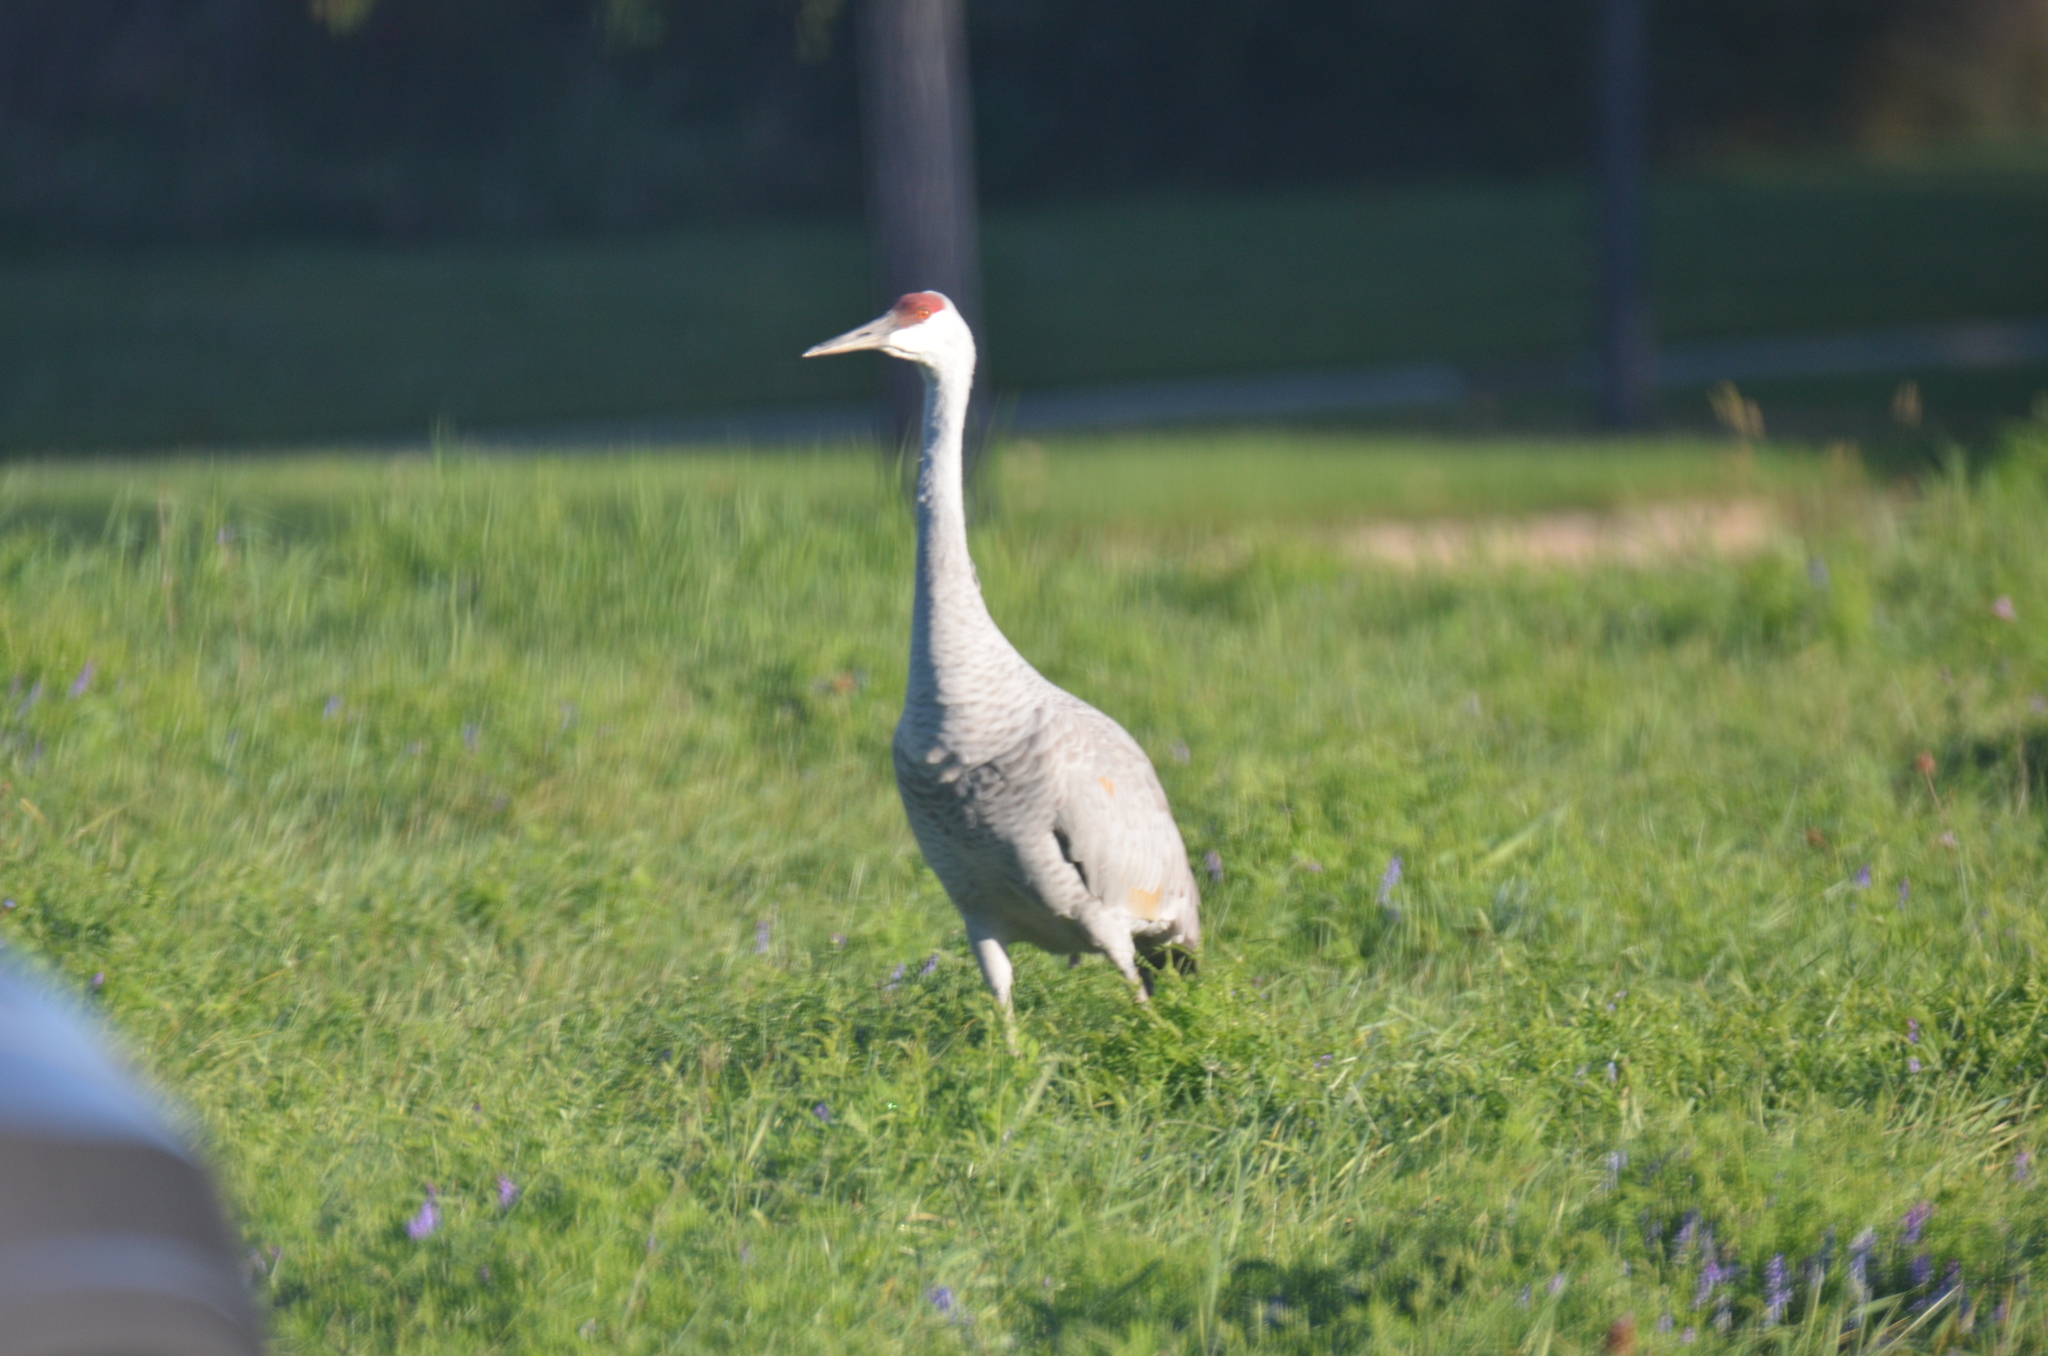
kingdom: Animalia
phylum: Chordata
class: Aves
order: Gruiformes
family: Gruidae
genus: Grus
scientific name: Grus canadensis
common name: Sandhill crane
